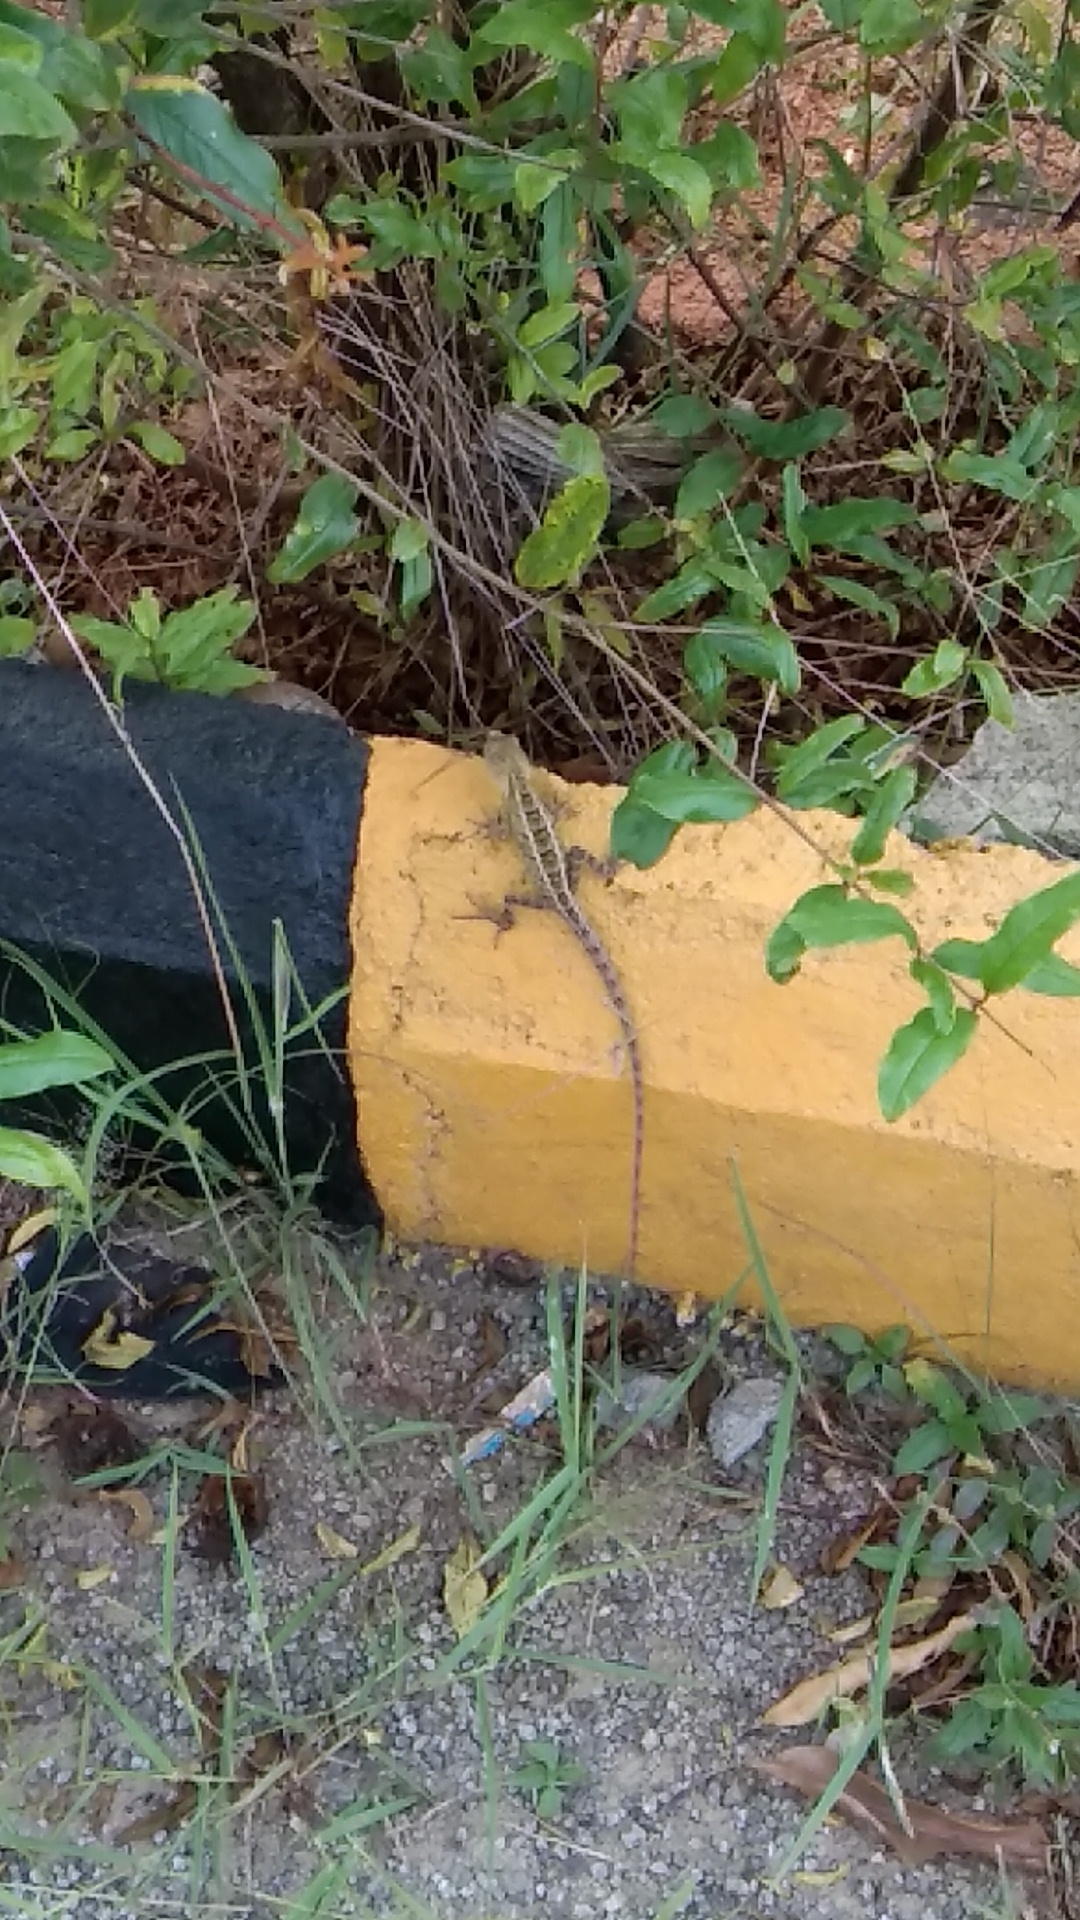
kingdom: Animalia
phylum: Chordata
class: Squamata
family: Agamidae
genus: Calotes
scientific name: Calotes versicolor
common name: Oriental garden lizard
